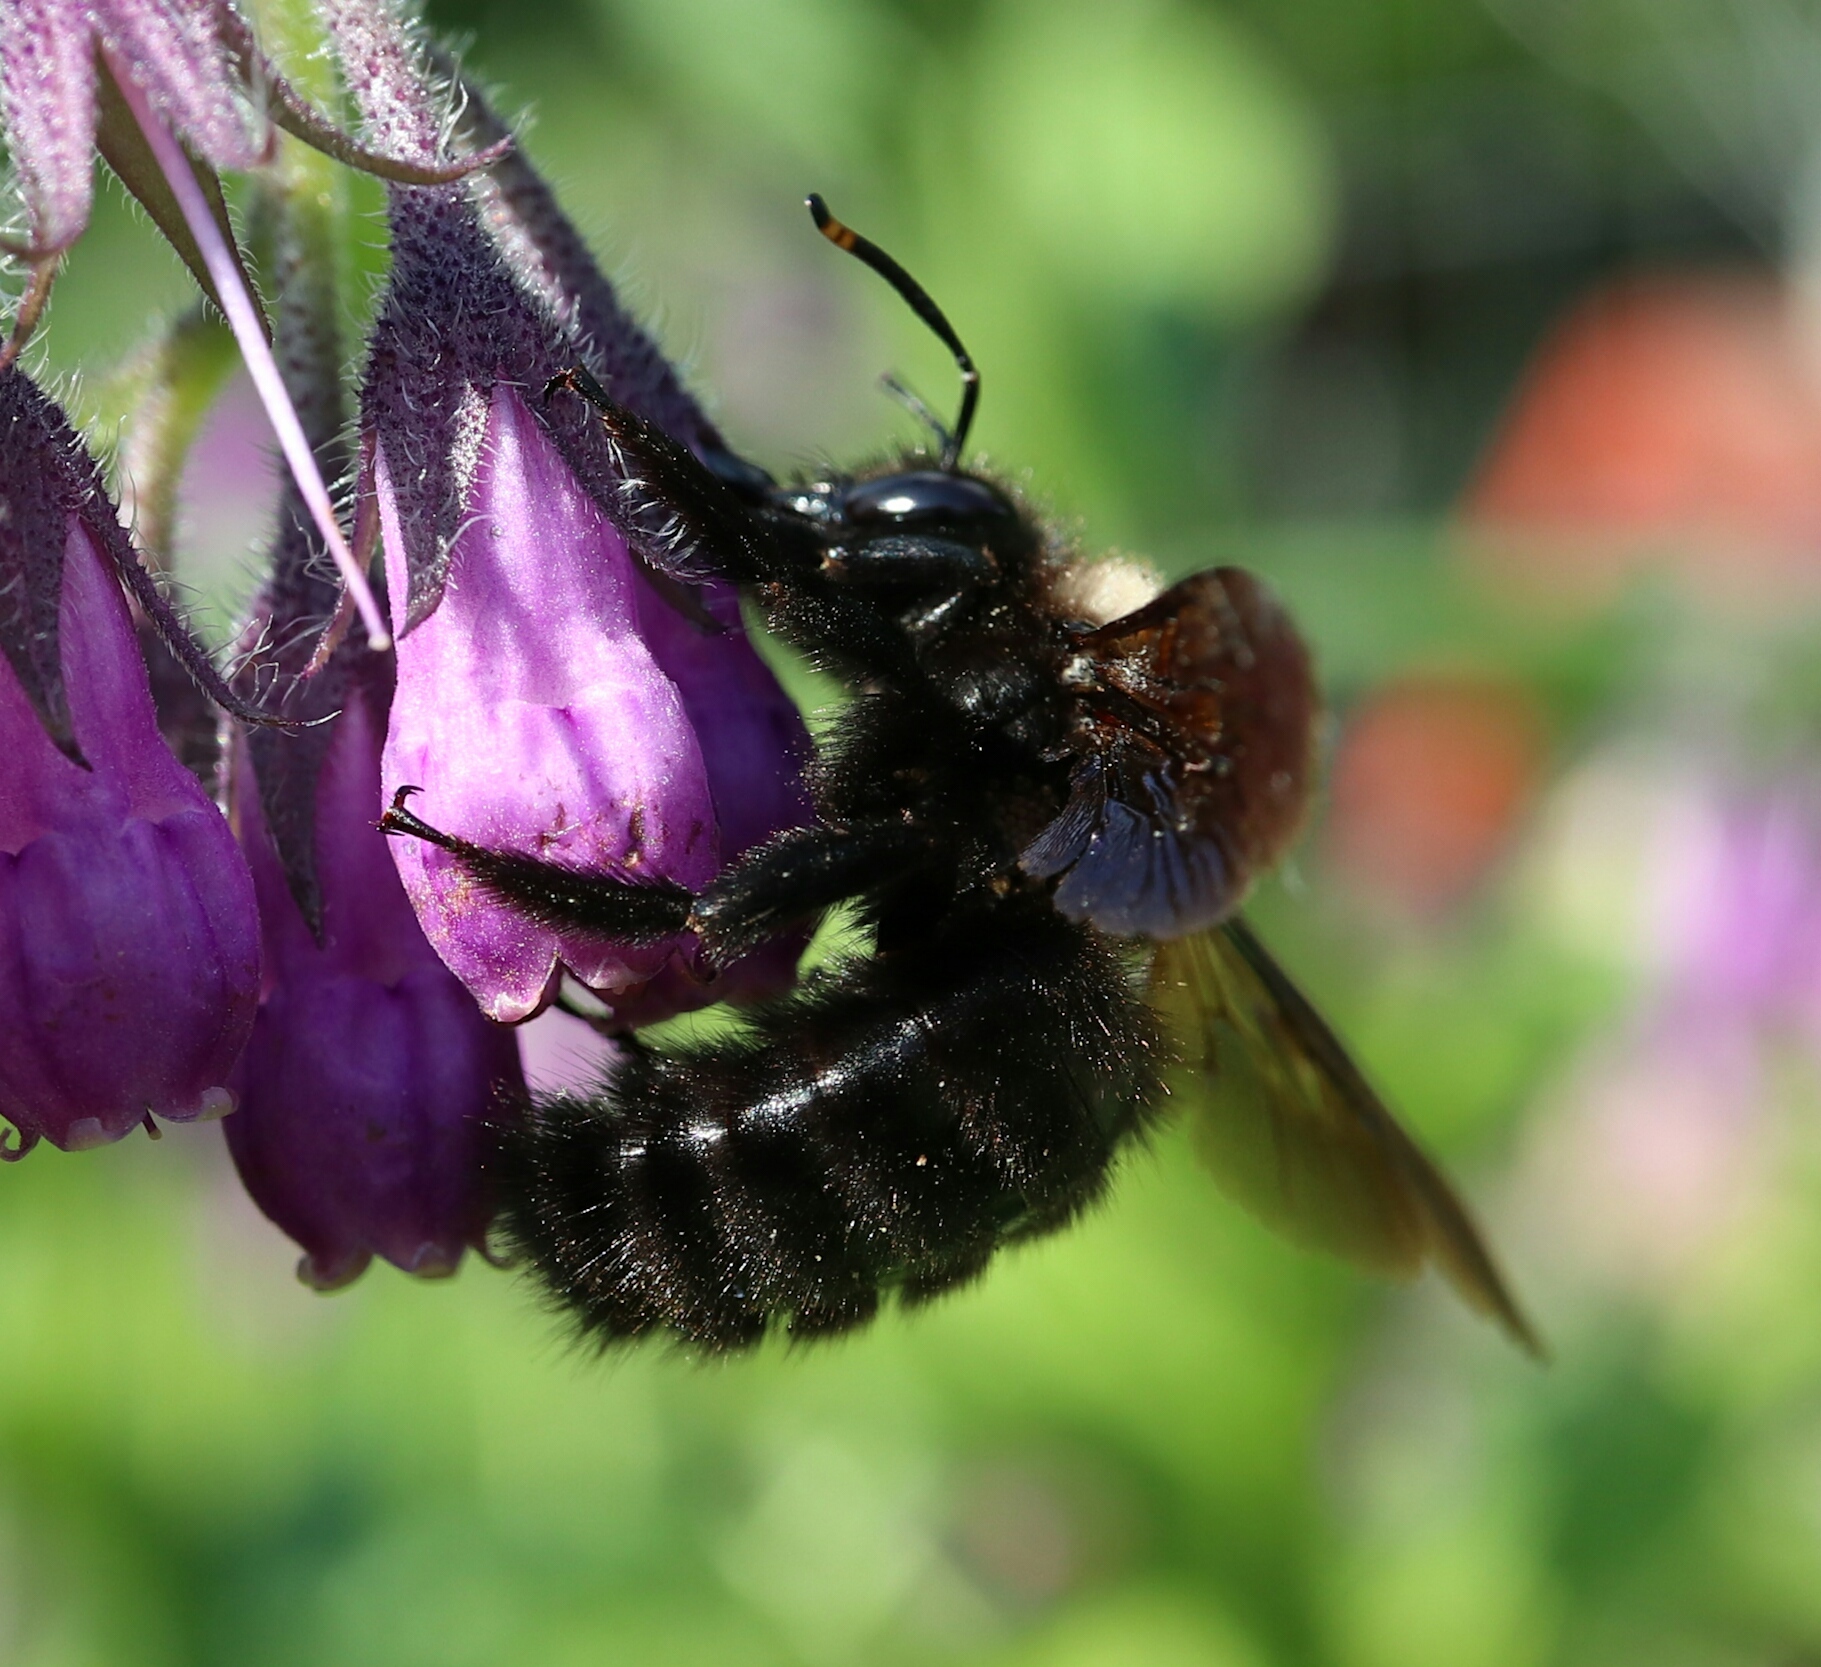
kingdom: Animalia
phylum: Arthropoda
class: Insecta
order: Hymenoptera
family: Apidae
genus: Xylocopa
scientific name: Xylocopa violacea
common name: Violet carpenter bee
